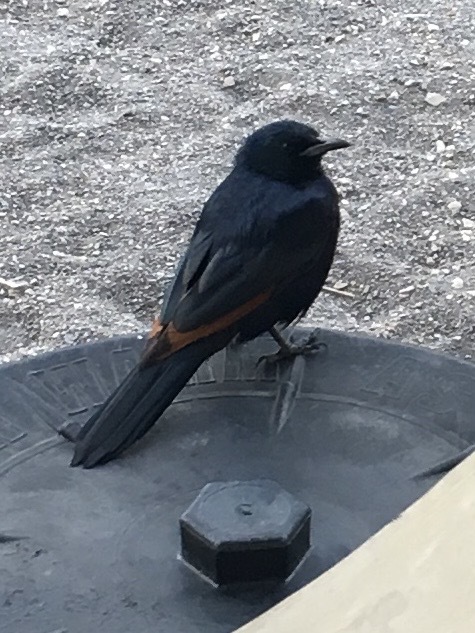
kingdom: Animalia
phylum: Chordata
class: Aves
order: Passeriformes
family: Sturnidae
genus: Onychognathus
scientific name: Onychognathus morio
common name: Red-winged starling
